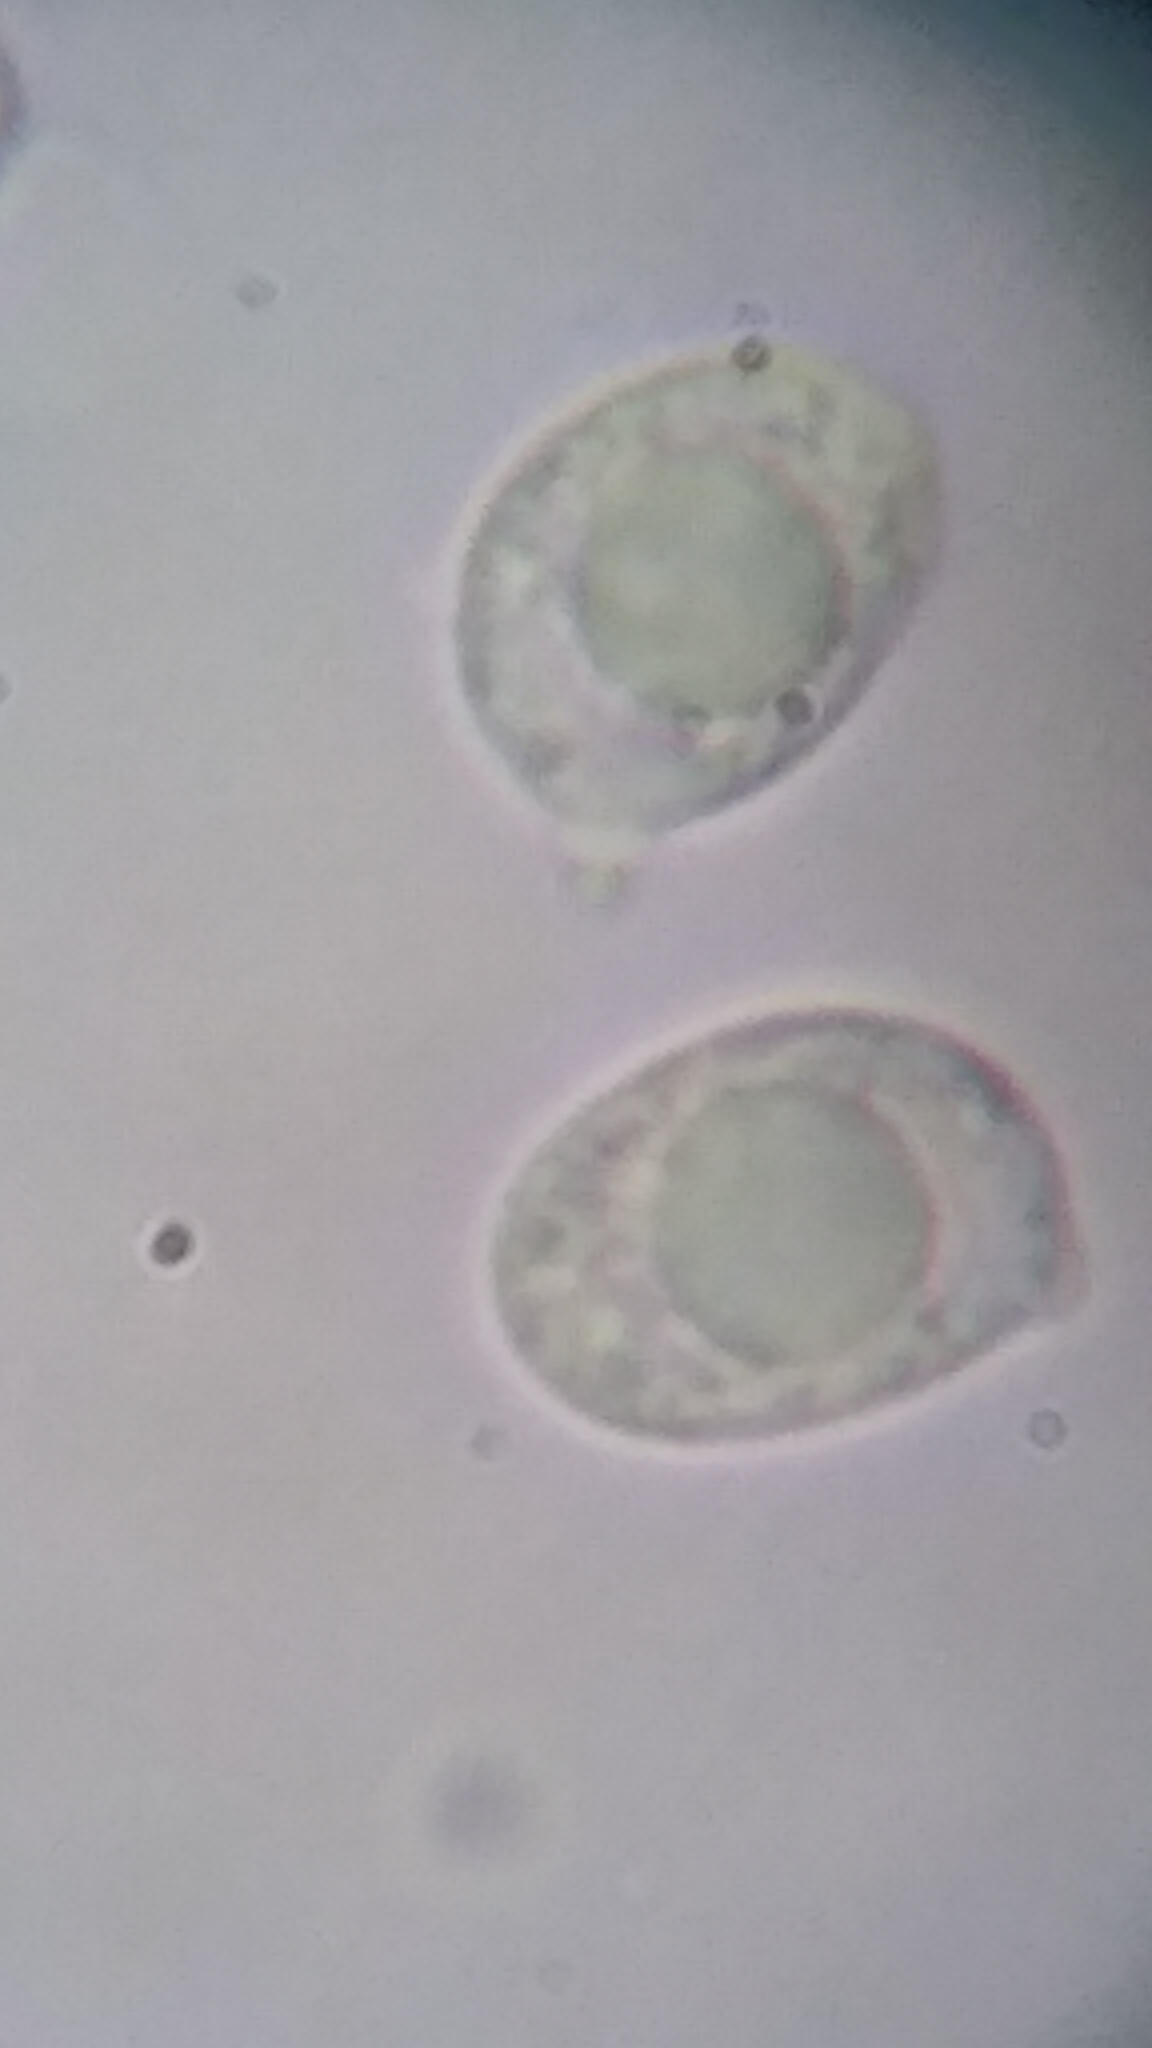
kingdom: Fungi
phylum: Basidiomycota
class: Agaricomycetes
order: Agaricales
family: Amanitaceae
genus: Amanita
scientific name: Amanita muscaria
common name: Fly agaric
